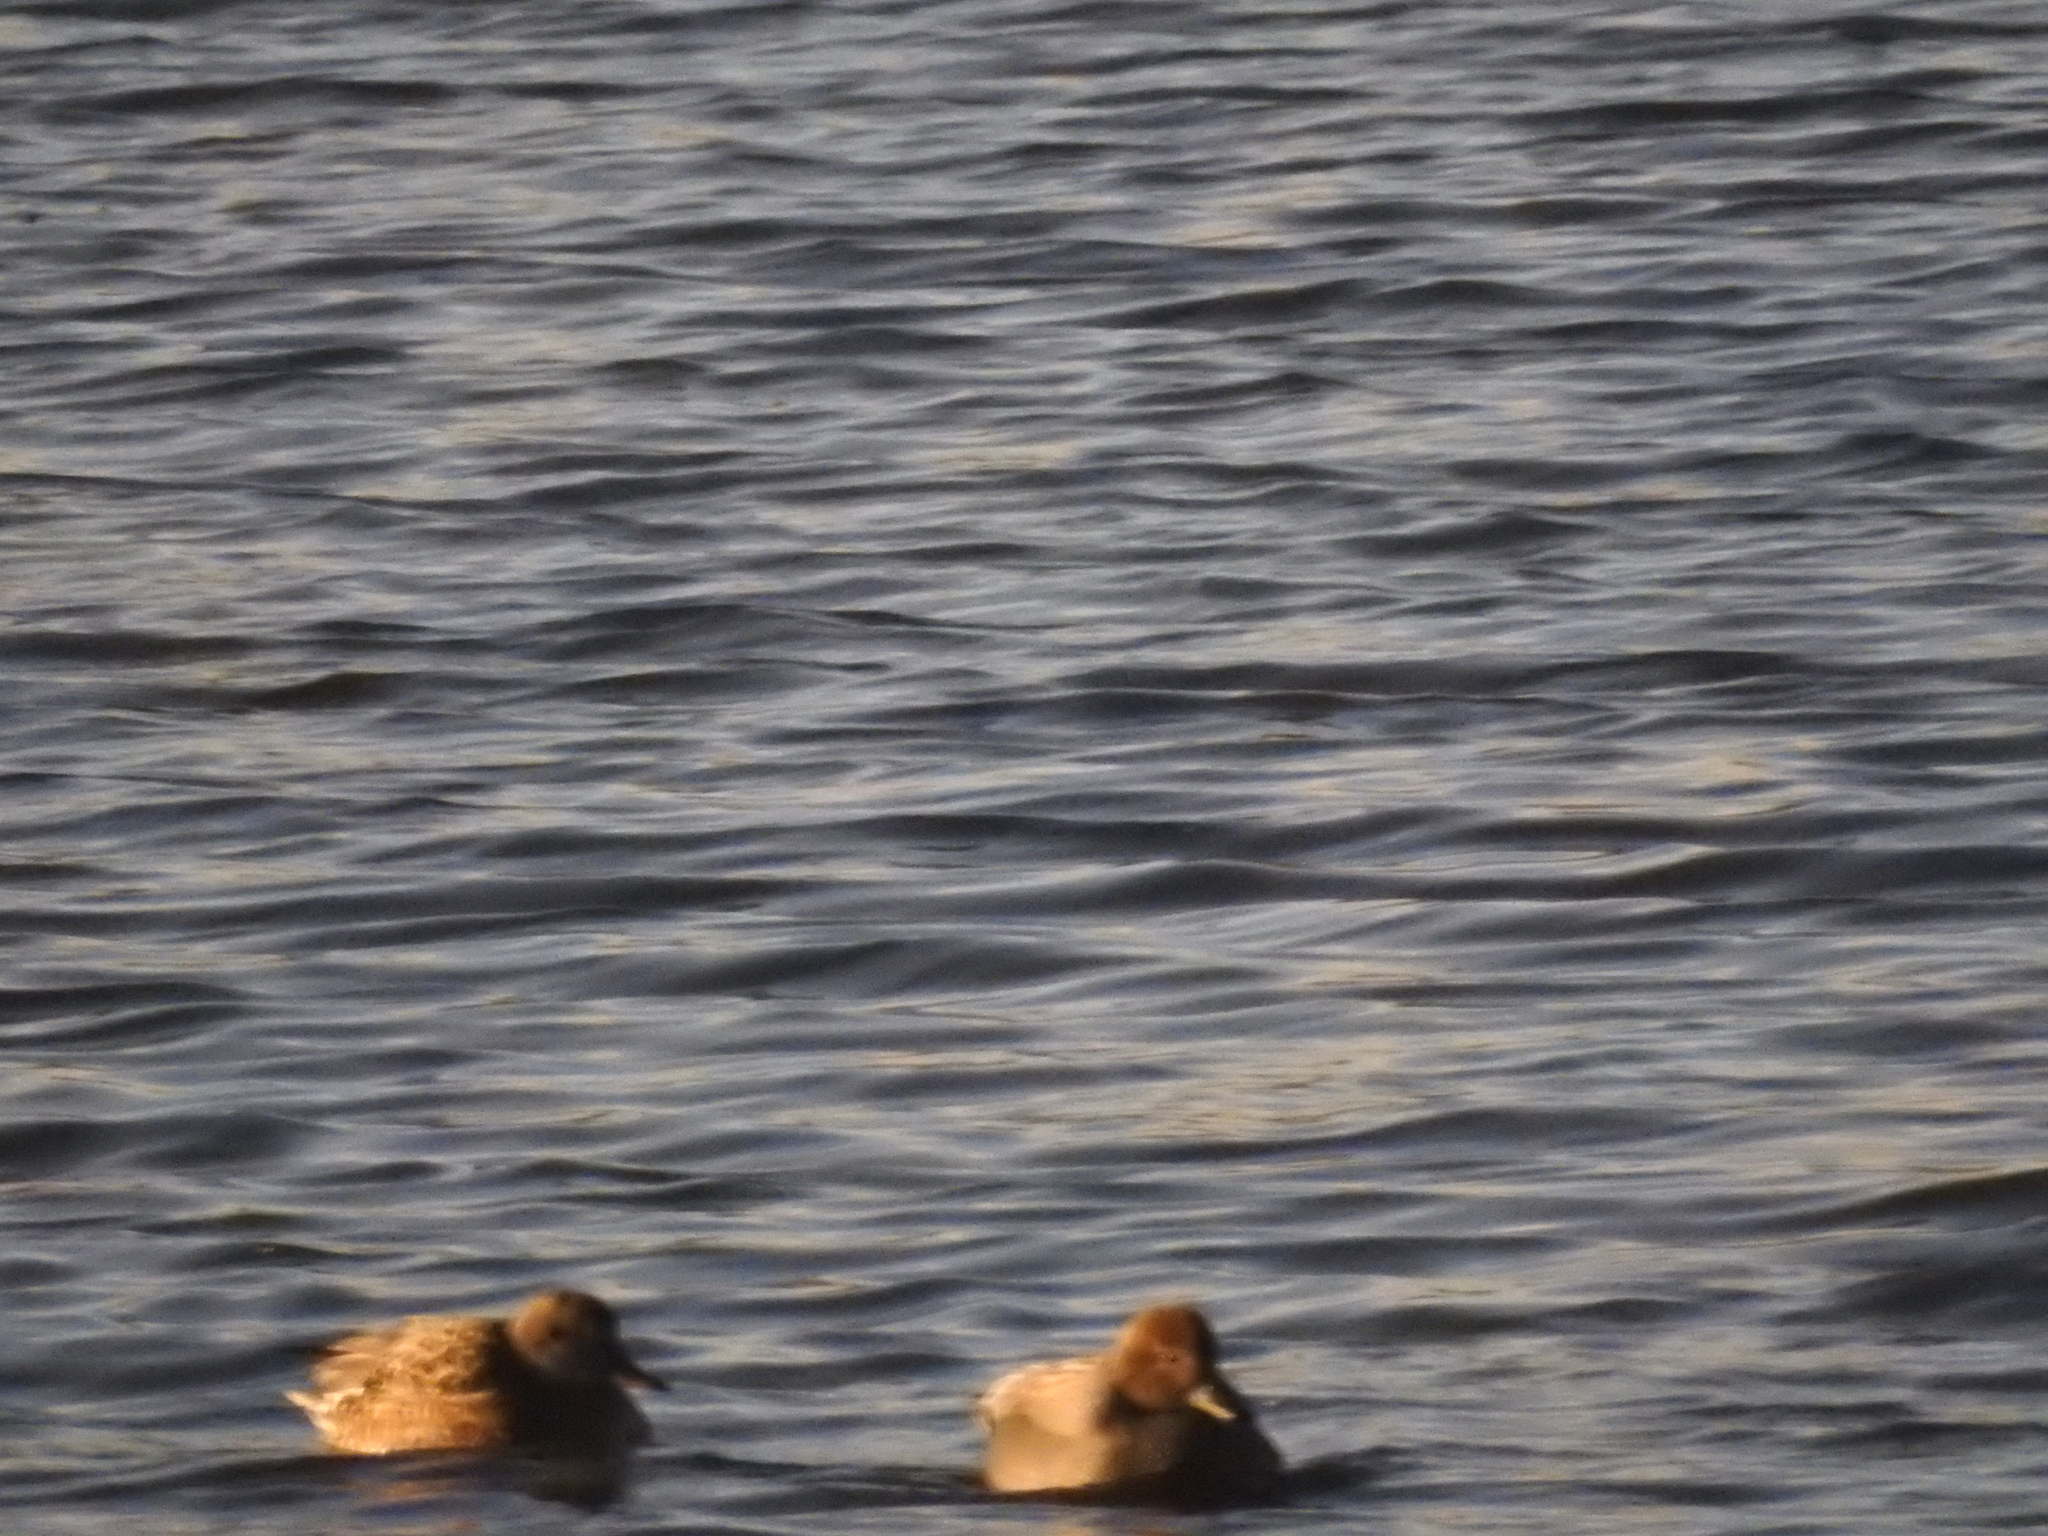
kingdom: Animalia
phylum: Chordata
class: Aves
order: Anseriformes
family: Anatidae
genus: Mareca
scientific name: Mareca strepera
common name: Gadwall
